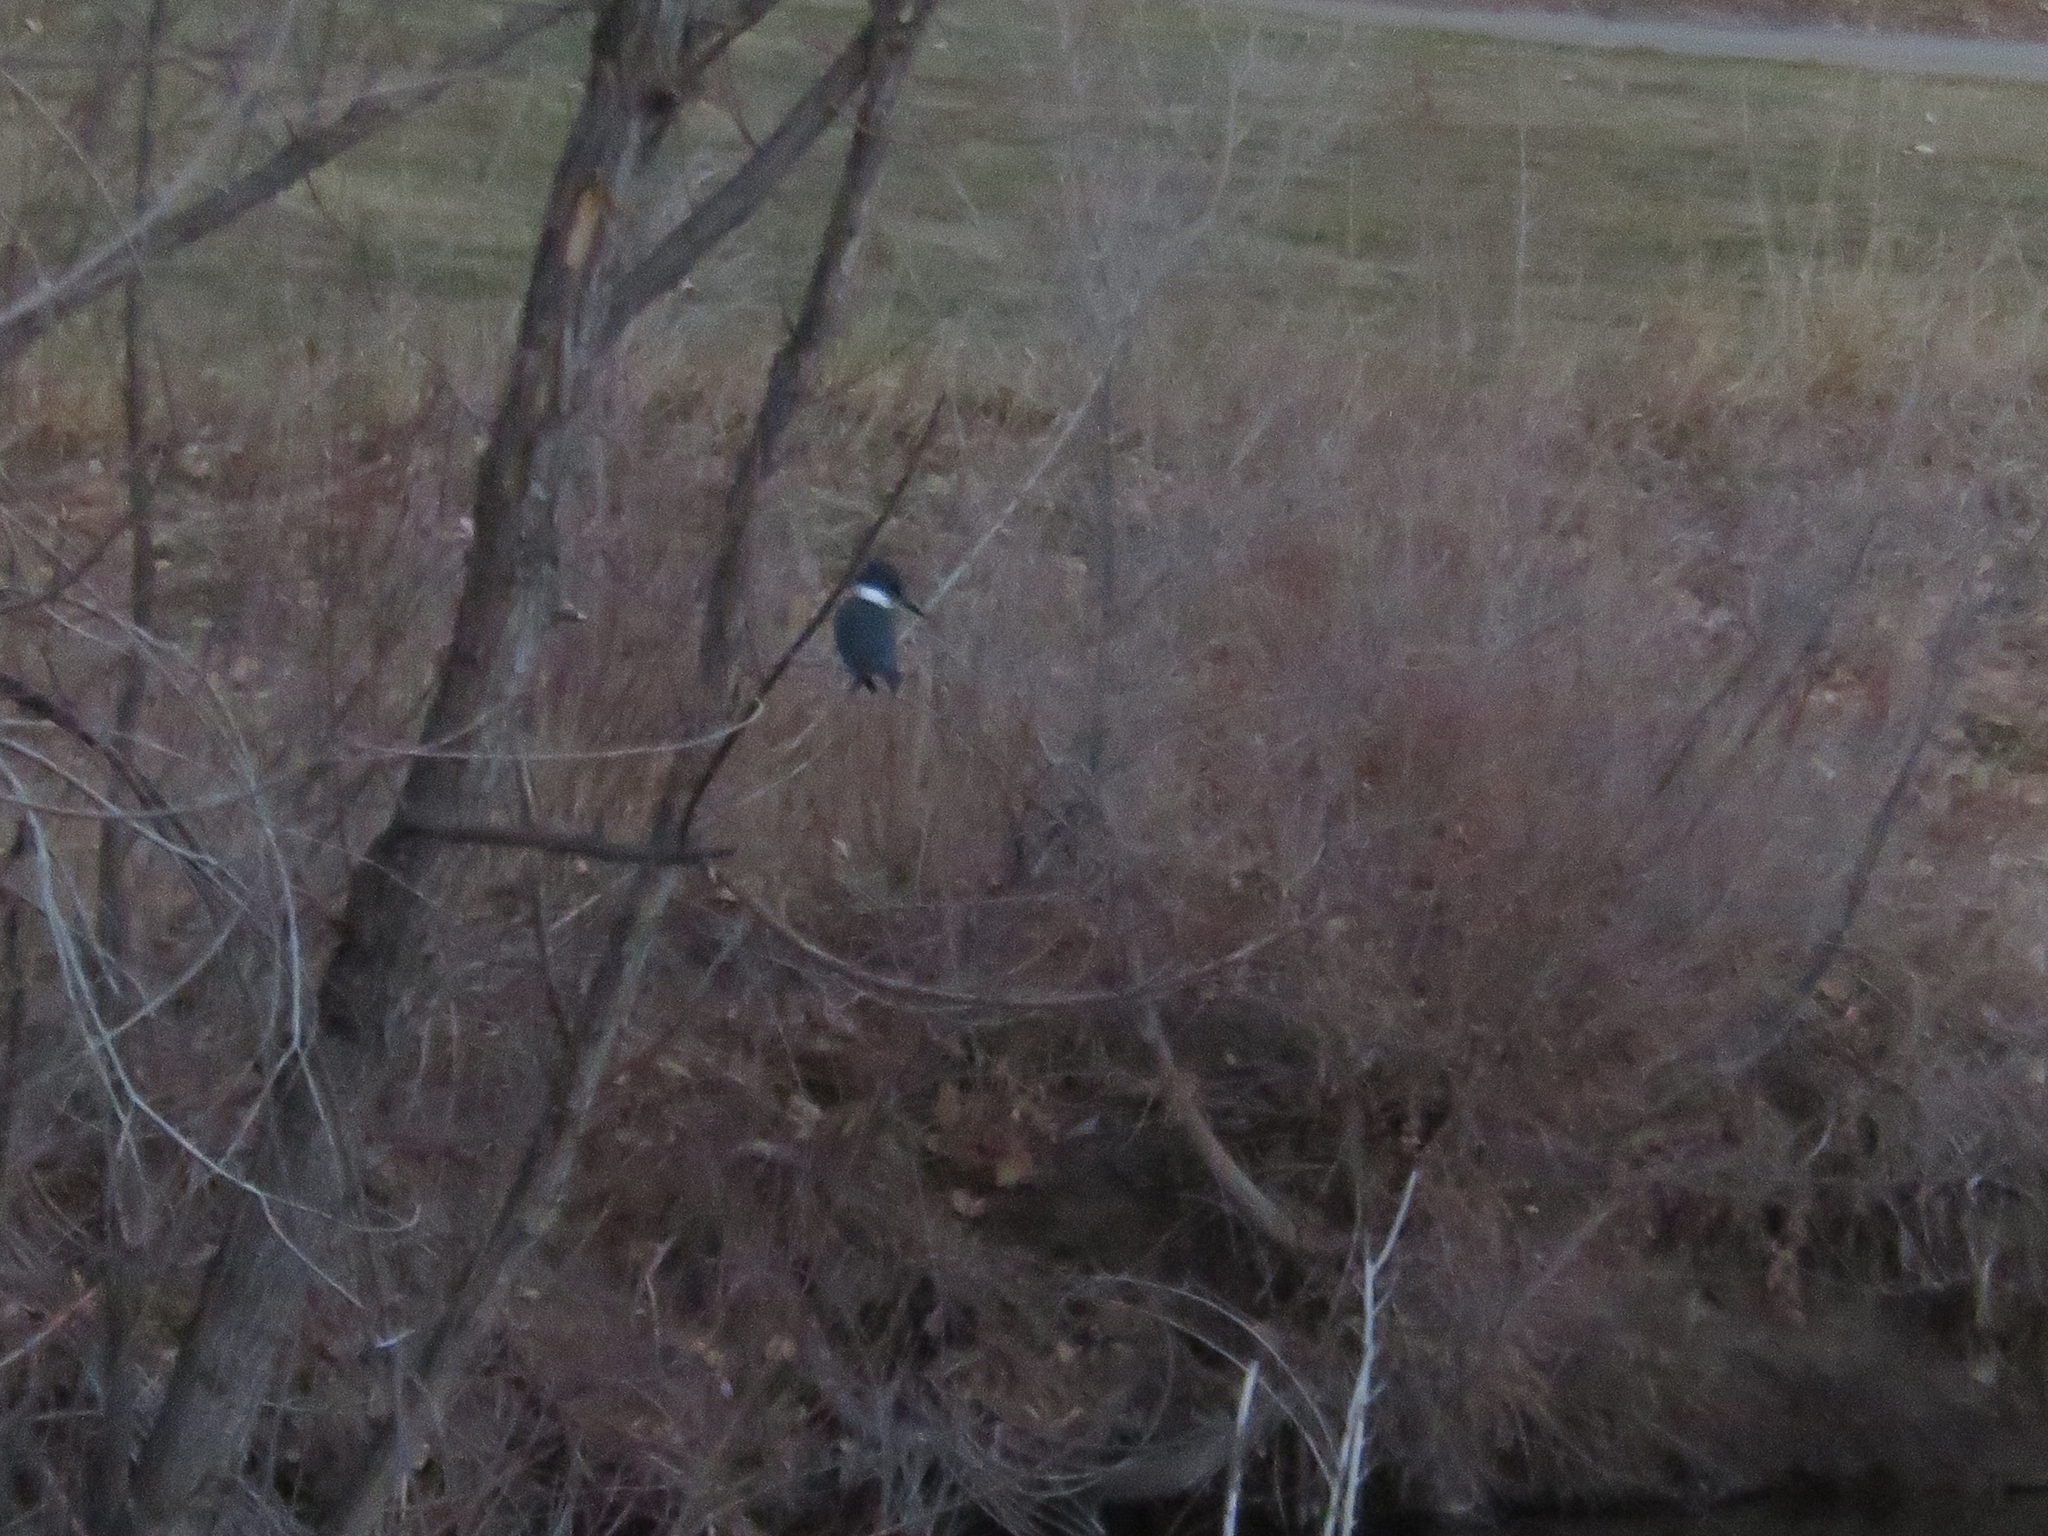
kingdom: Animalia
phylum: Chordata
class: Aves
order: Coraciiformes
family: Alcedinidae
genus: Megaceryle
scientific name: Megaceryle alcyon
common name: Belted kingfisher
